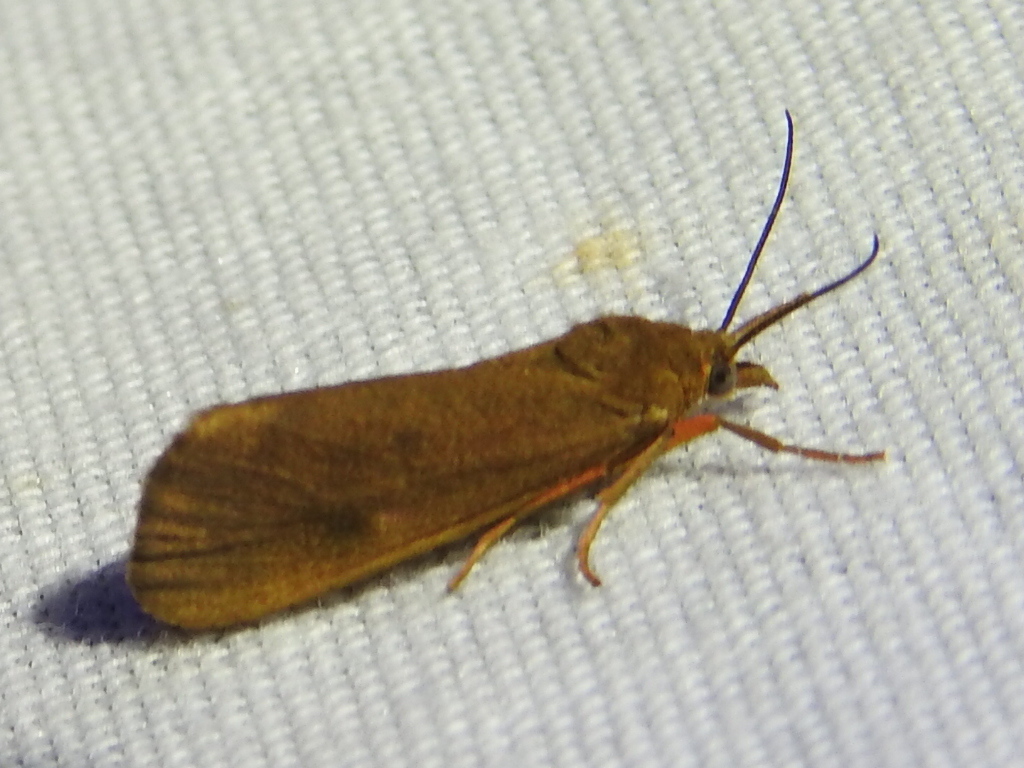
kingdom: Animalia
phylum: Arthropoda
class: Insecta
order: Lepidoptera
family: Erebidae
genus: Virbia
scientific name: Virbia aurantiaca
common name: Orange virbia moth
